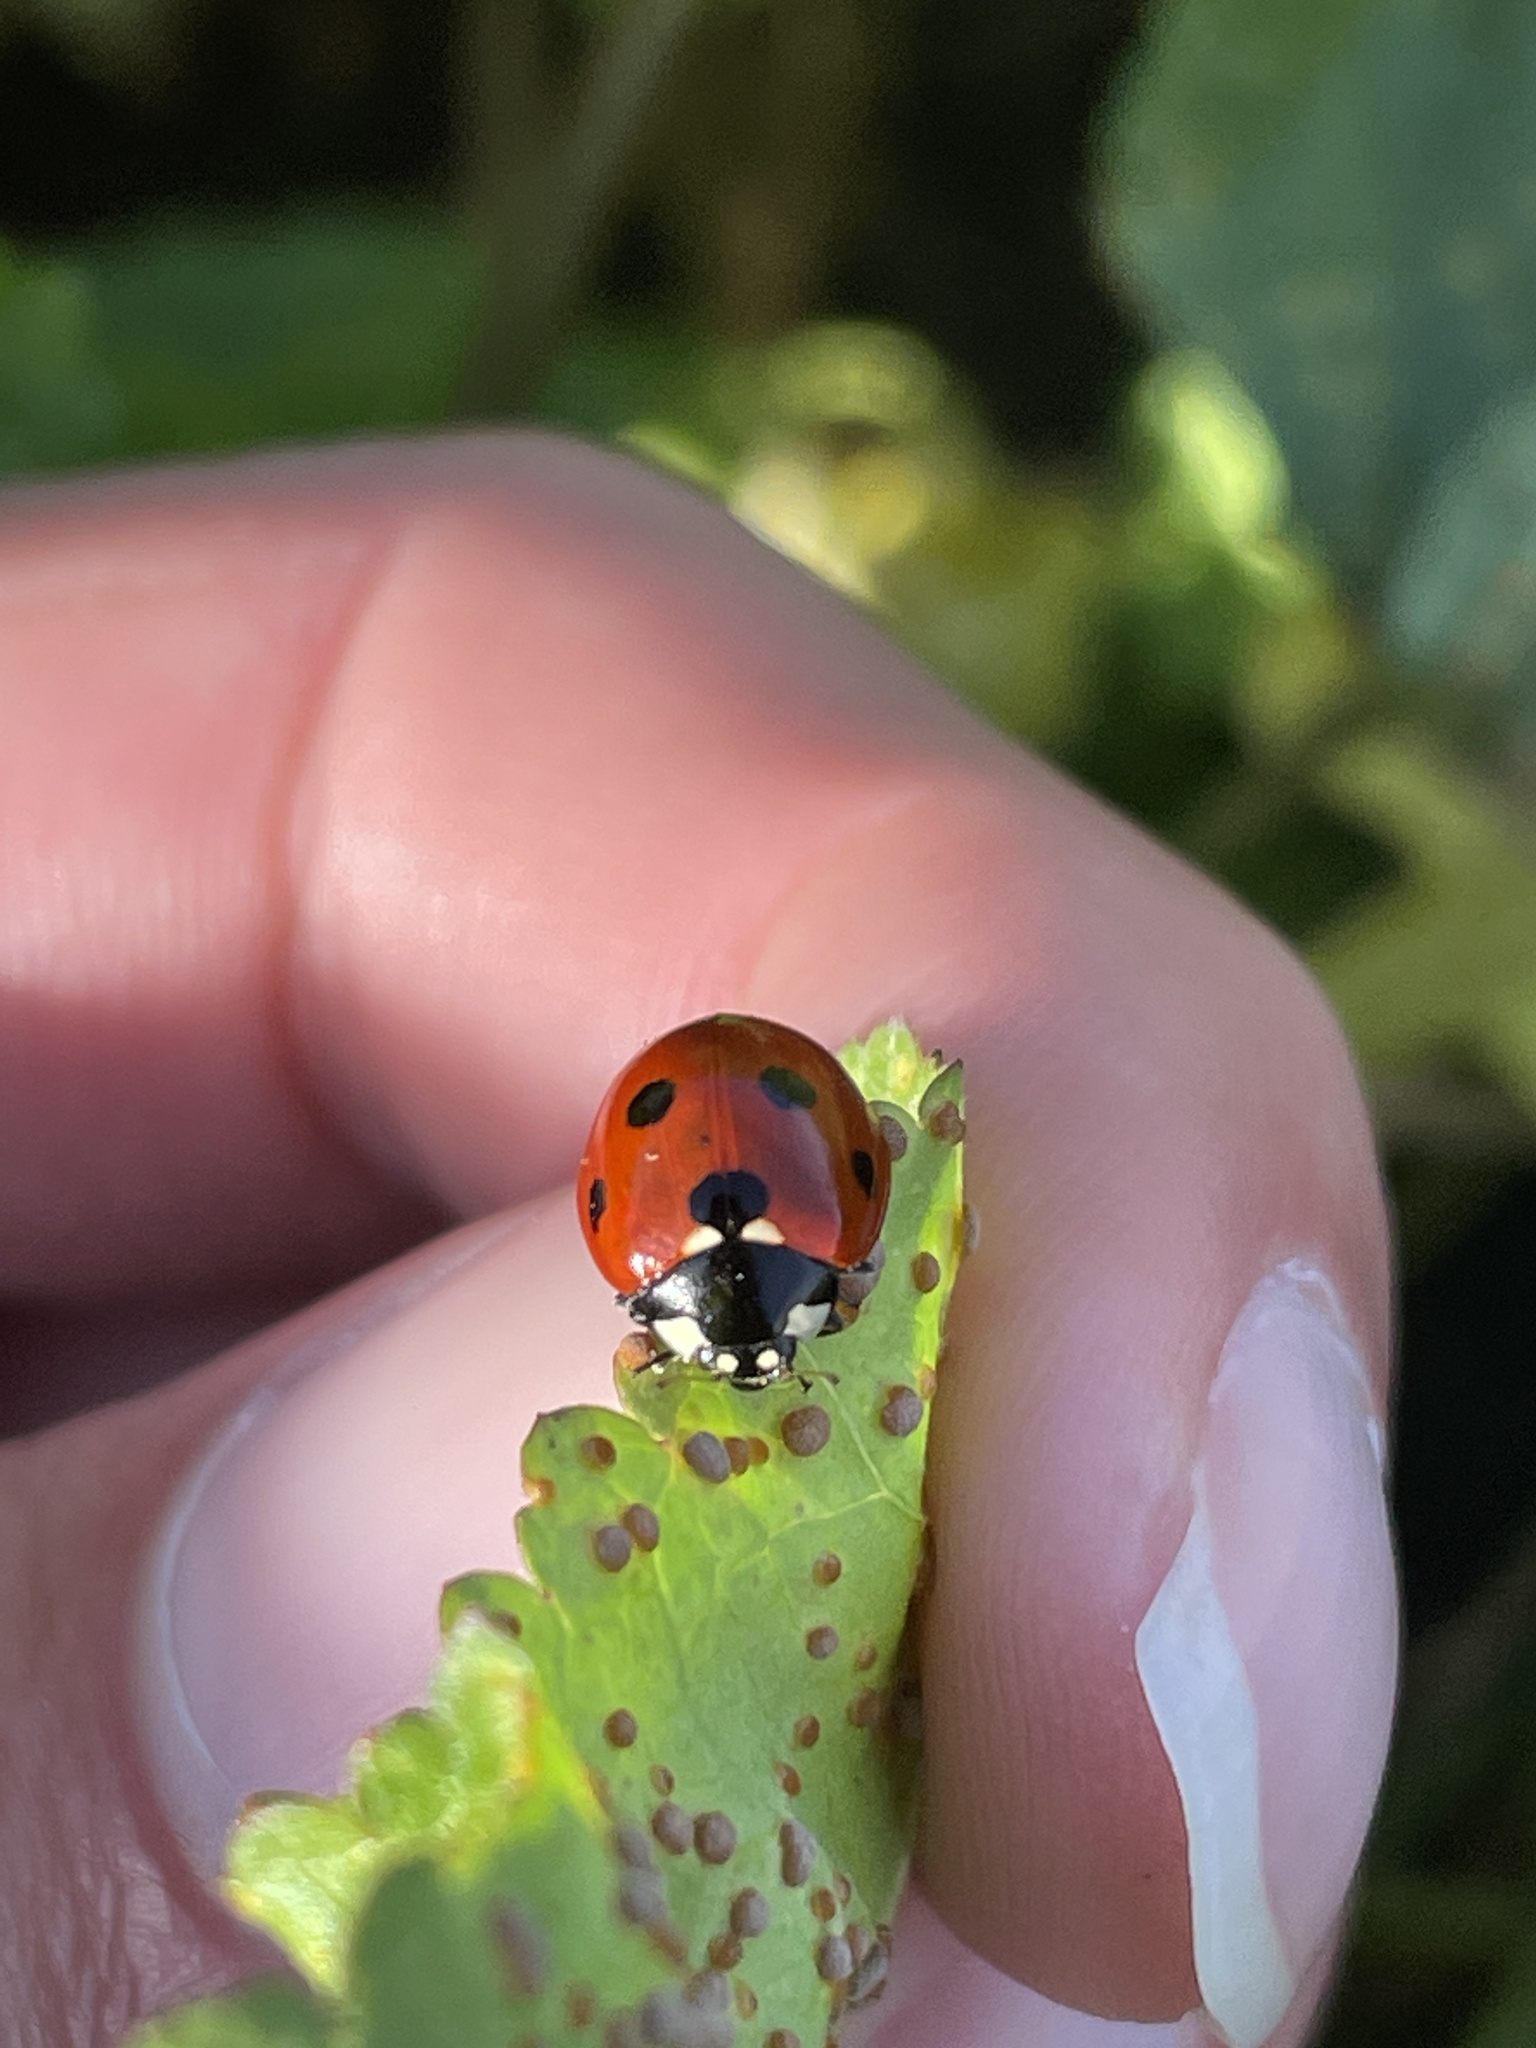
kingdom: Animalia
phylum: Arthropoda
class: Insecta
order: Coleoptera
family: Coccinellidae
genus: Coccinella
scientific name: Coccinella septempunctata
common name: Sevenspotted lady beetle
